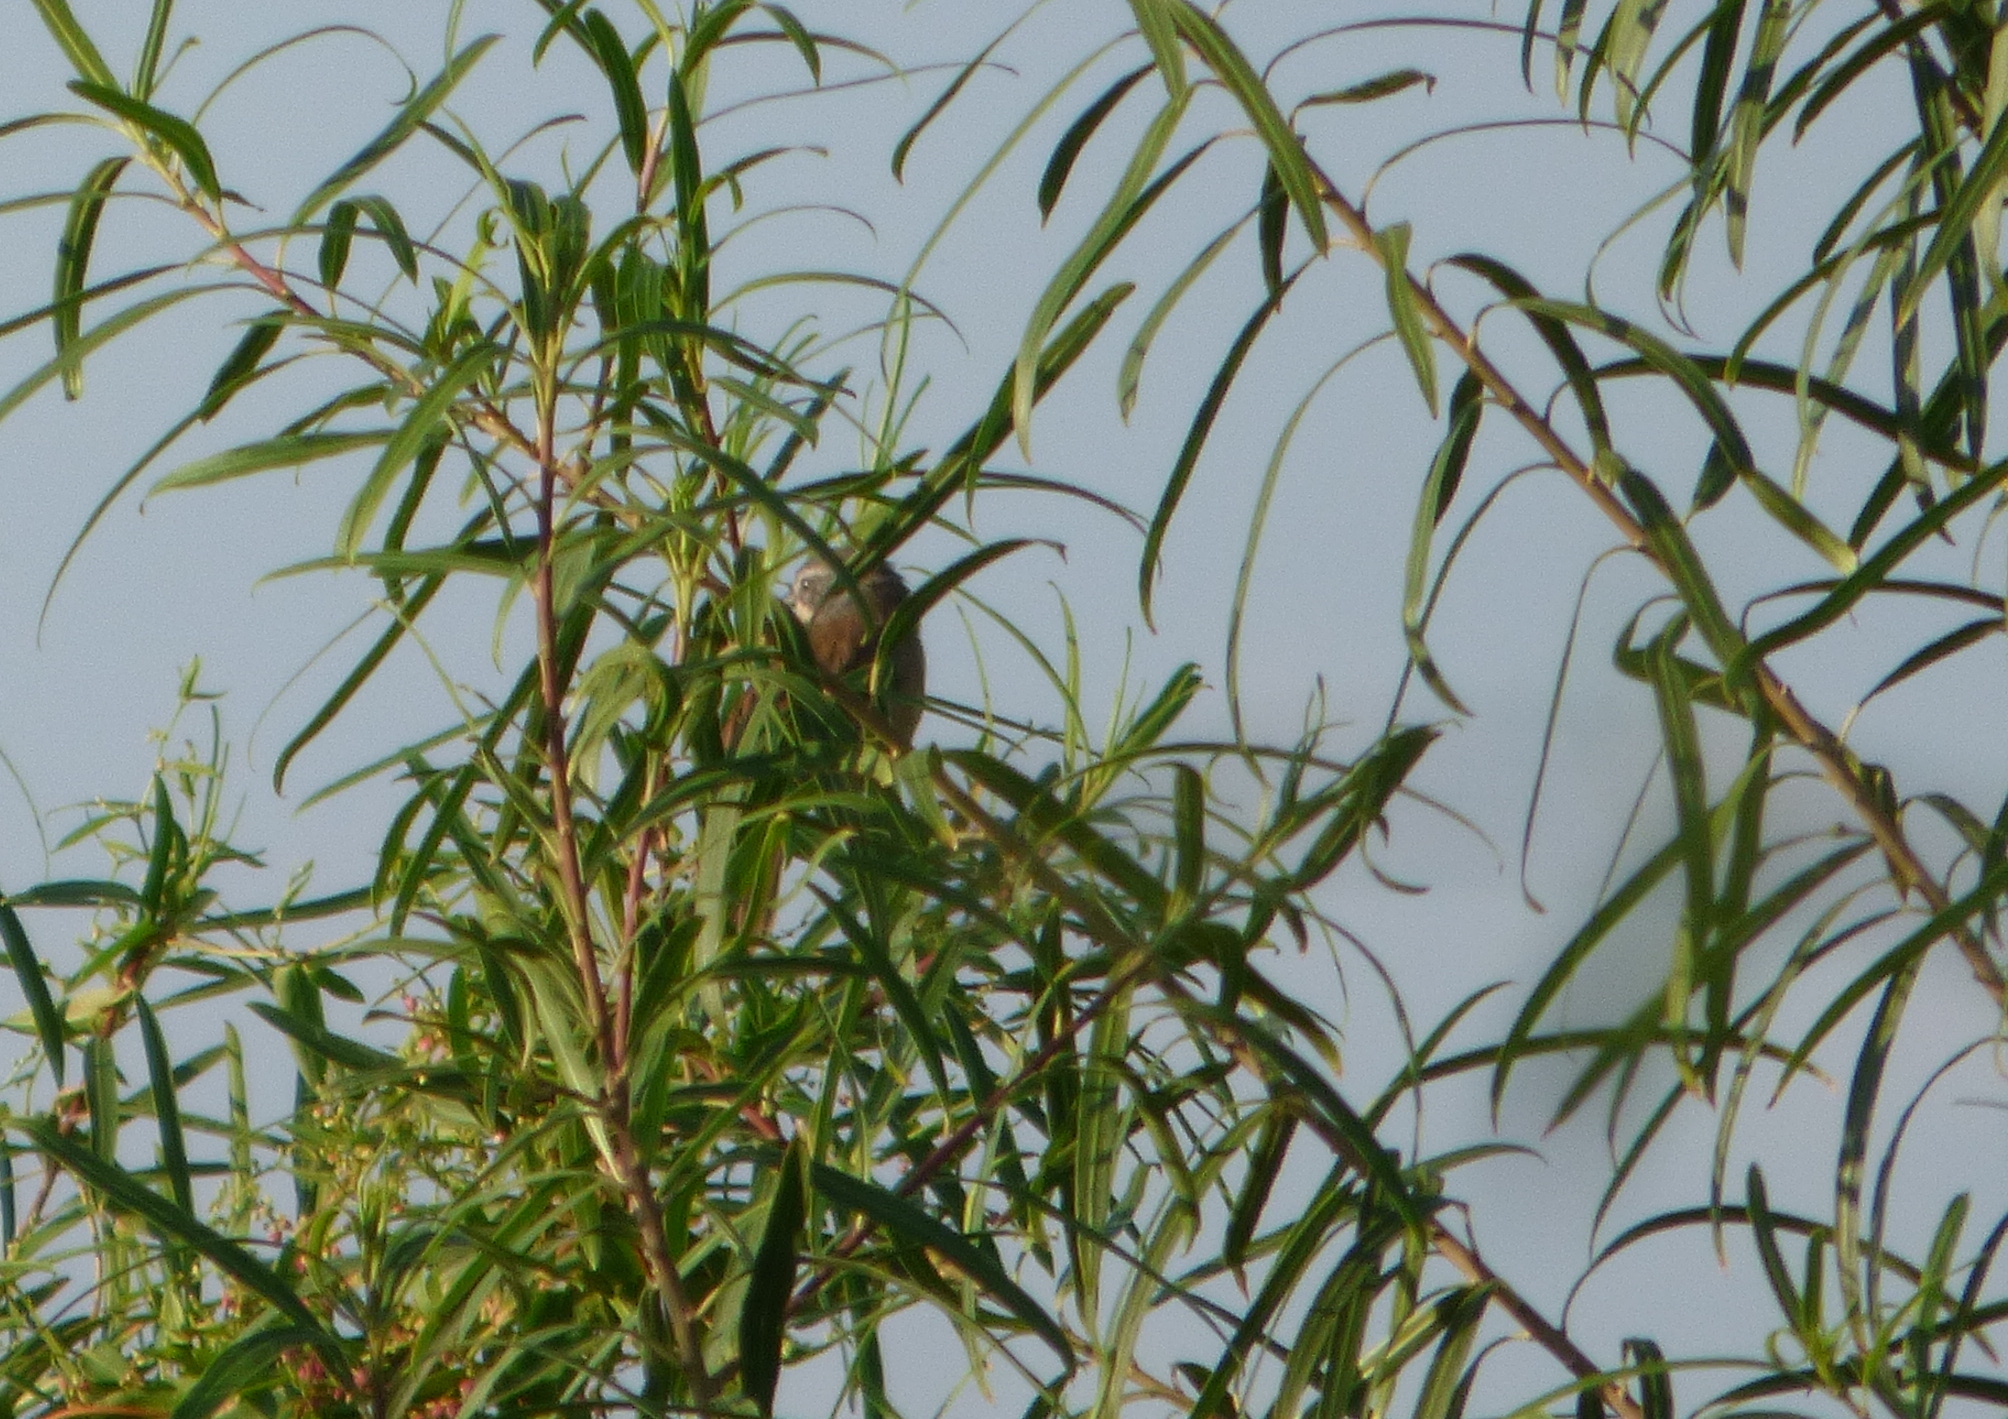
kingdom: Animalia
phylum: Chordata
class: Aves
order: Passeriformes
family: Thraupidae
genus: Donacospiza
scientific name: Donacospiza albifrons
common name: Long-tailed reed finch
